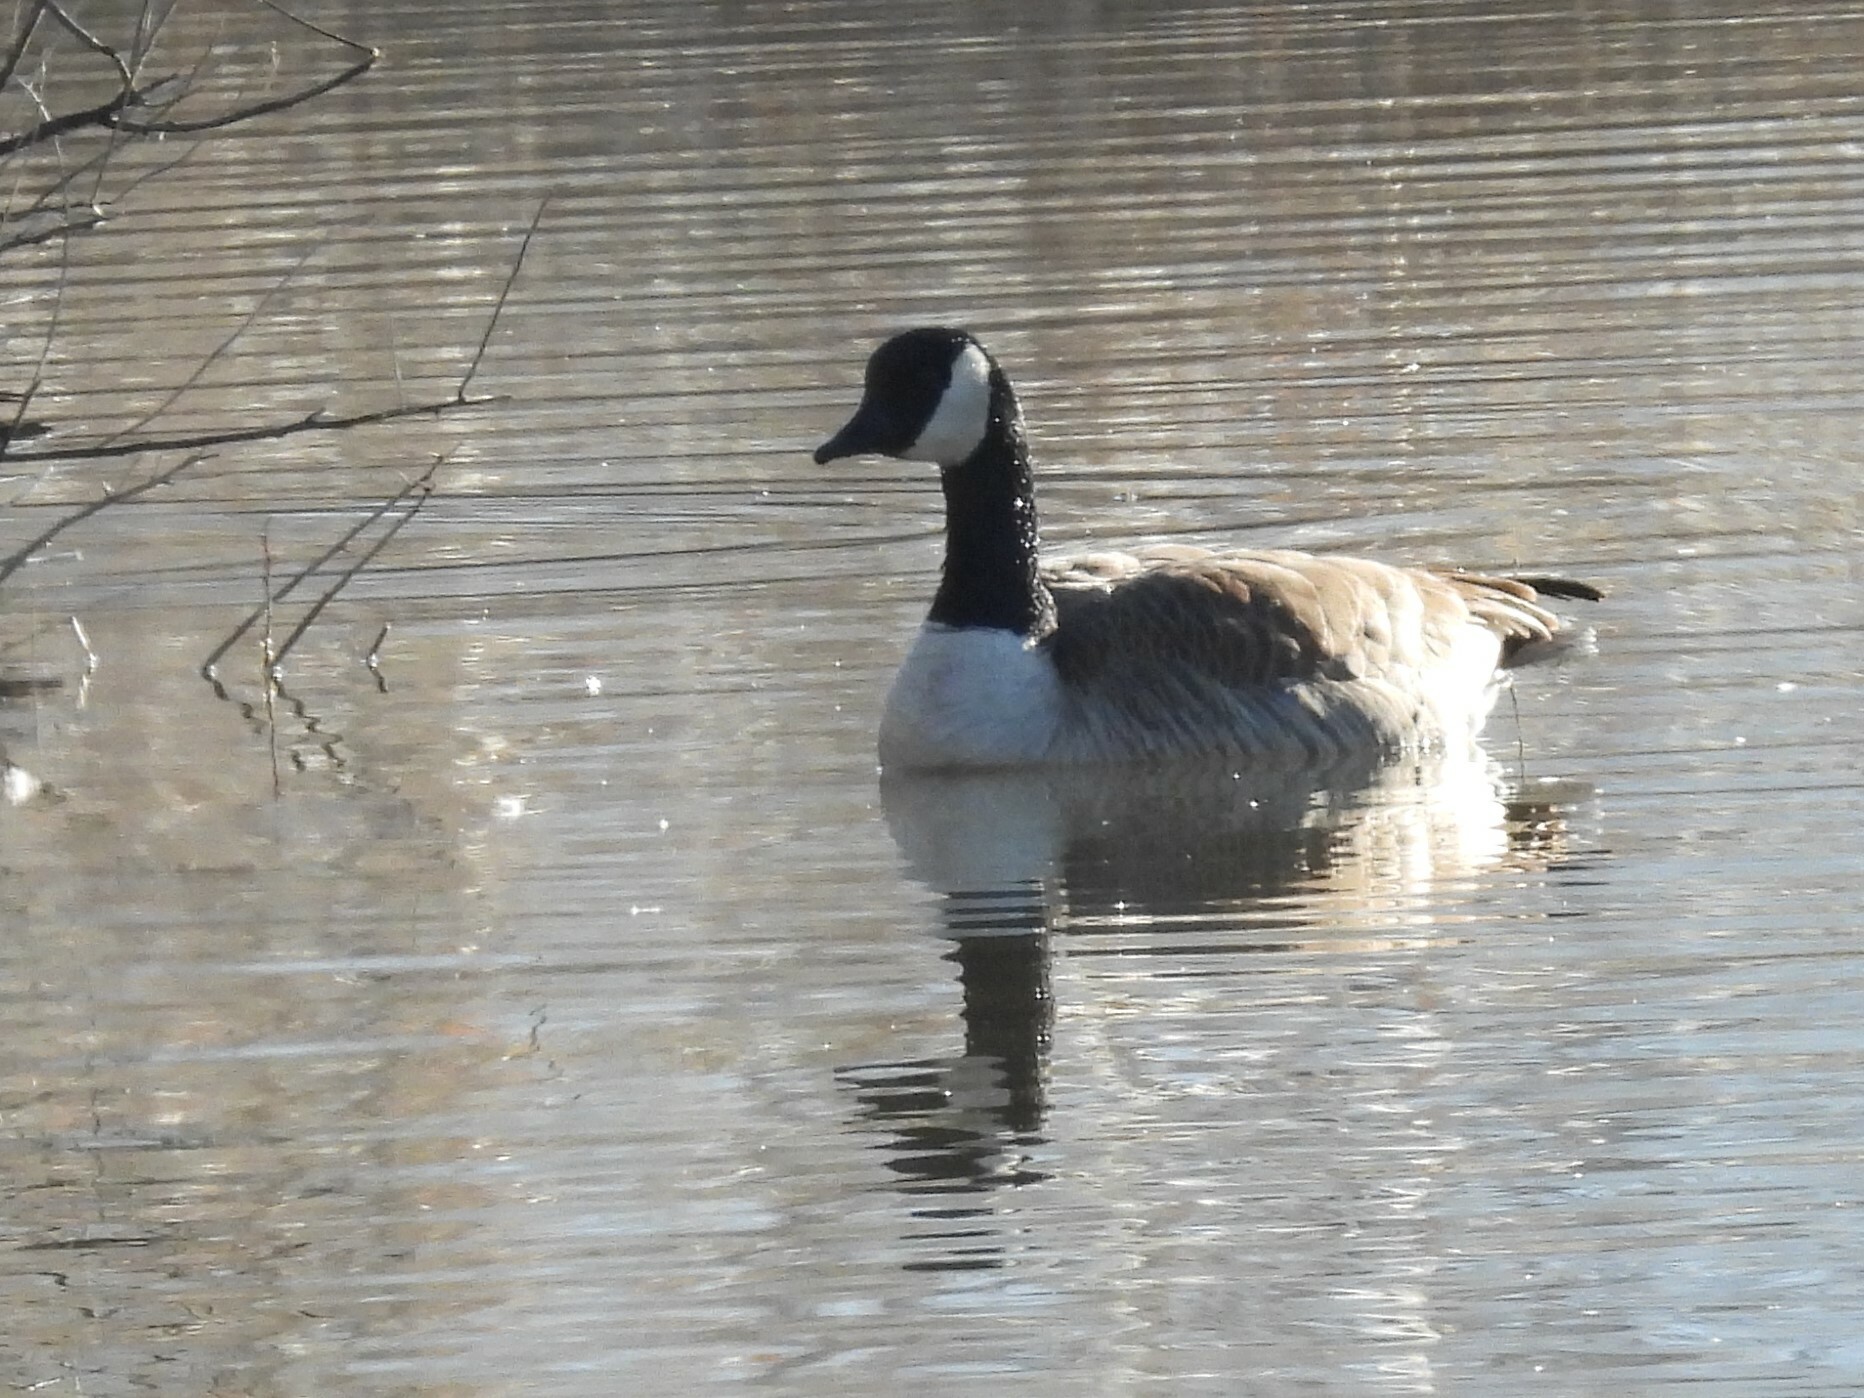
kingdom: Animalia
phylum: Chordata
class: Aves
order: Anseriformes
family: Anatidae
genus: Branta
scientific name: Branta canadensis
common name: Canada goose
